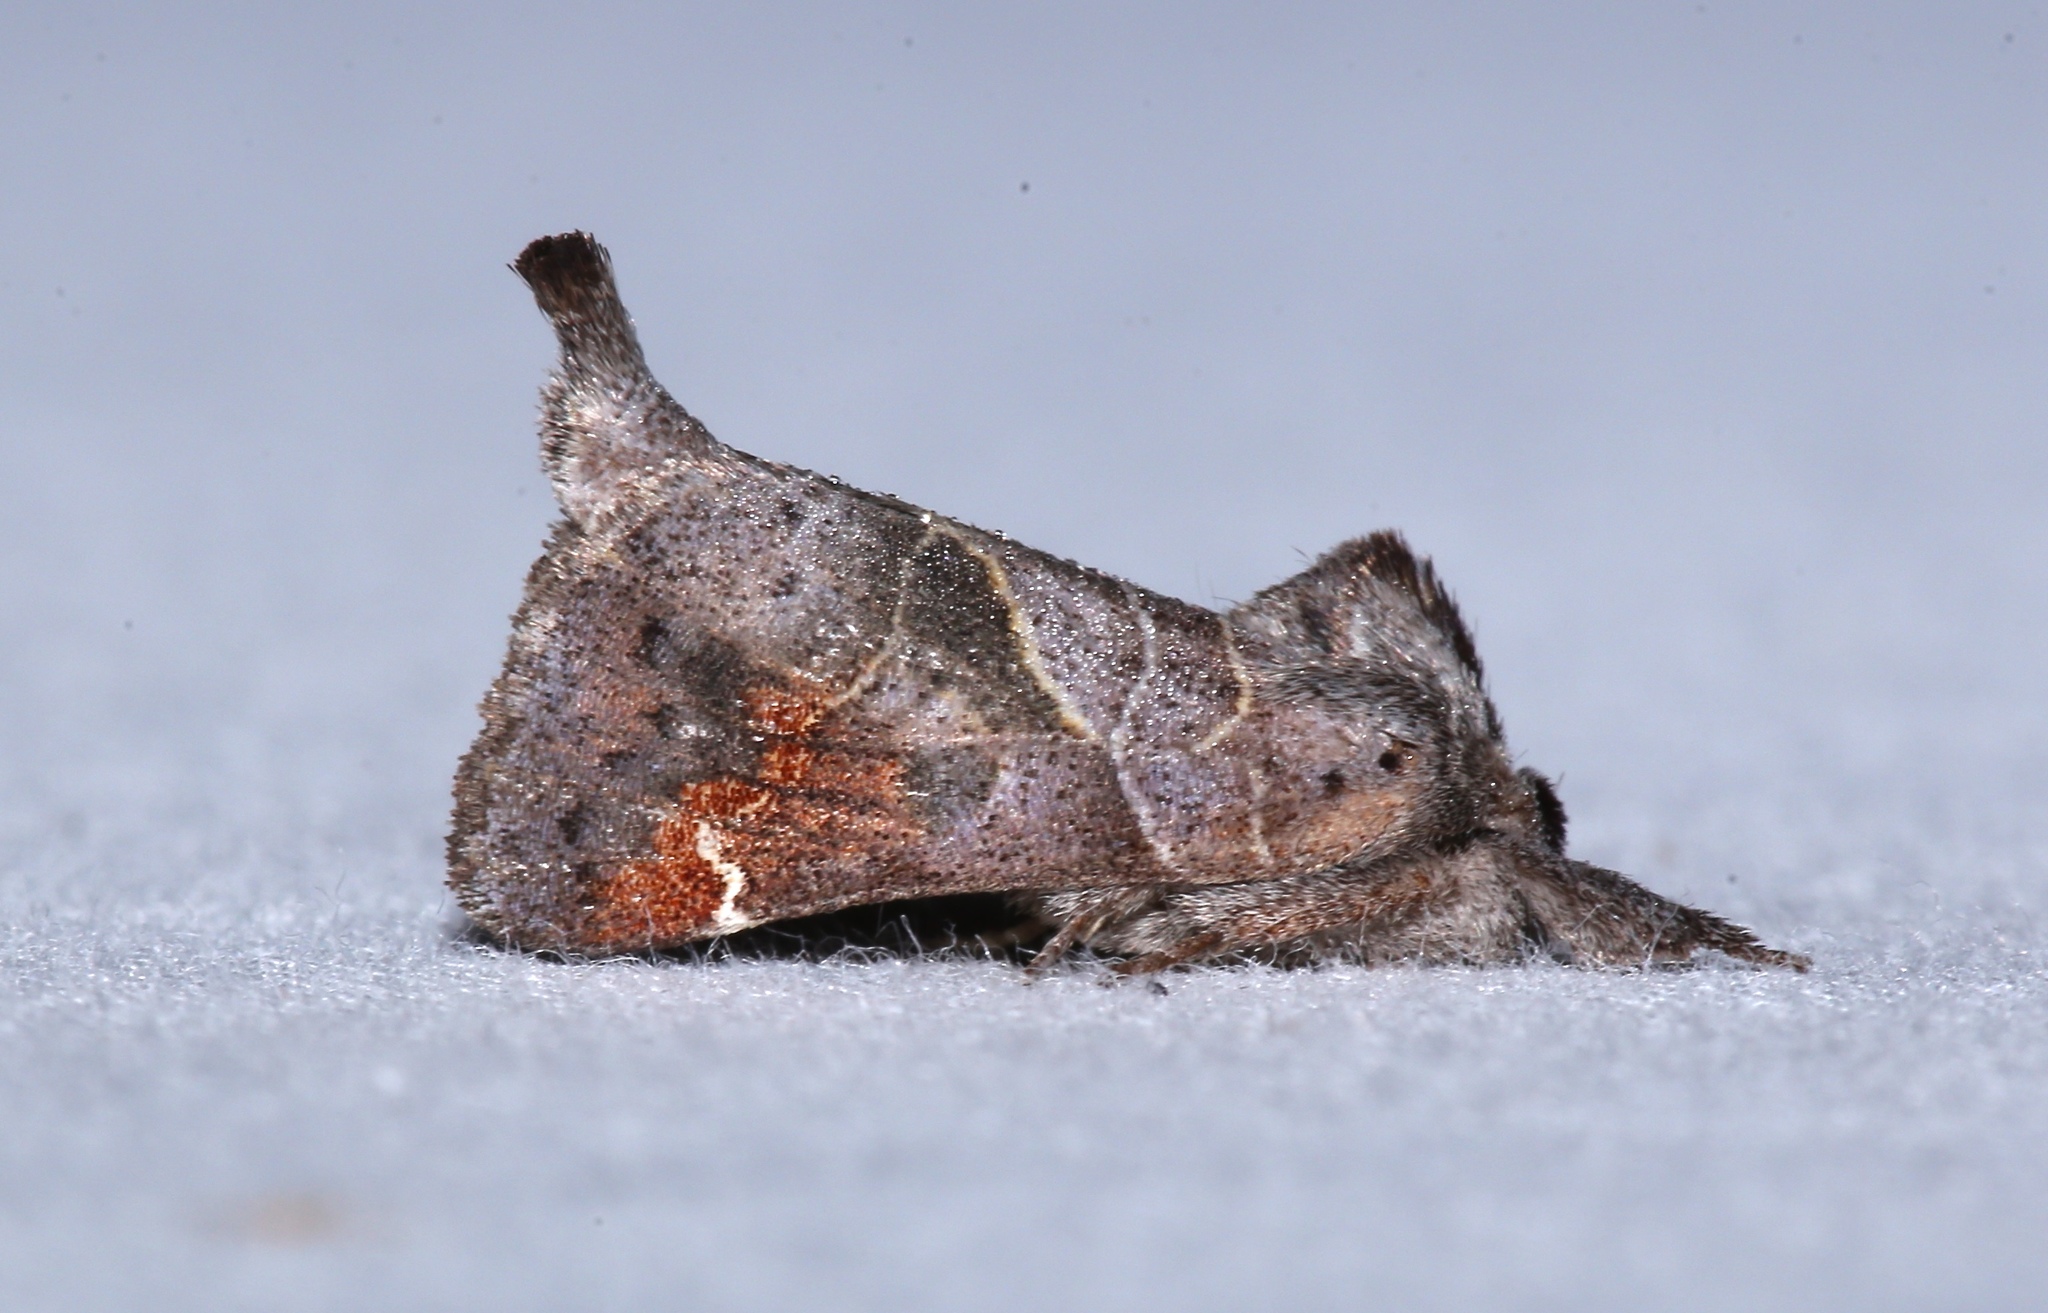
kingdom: Animalia
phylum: Arthropoda
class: Insecta
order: Lepidoptera
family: Notodontidae
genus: Clostera
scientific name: Clostera apicalis
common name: Apical prominent
